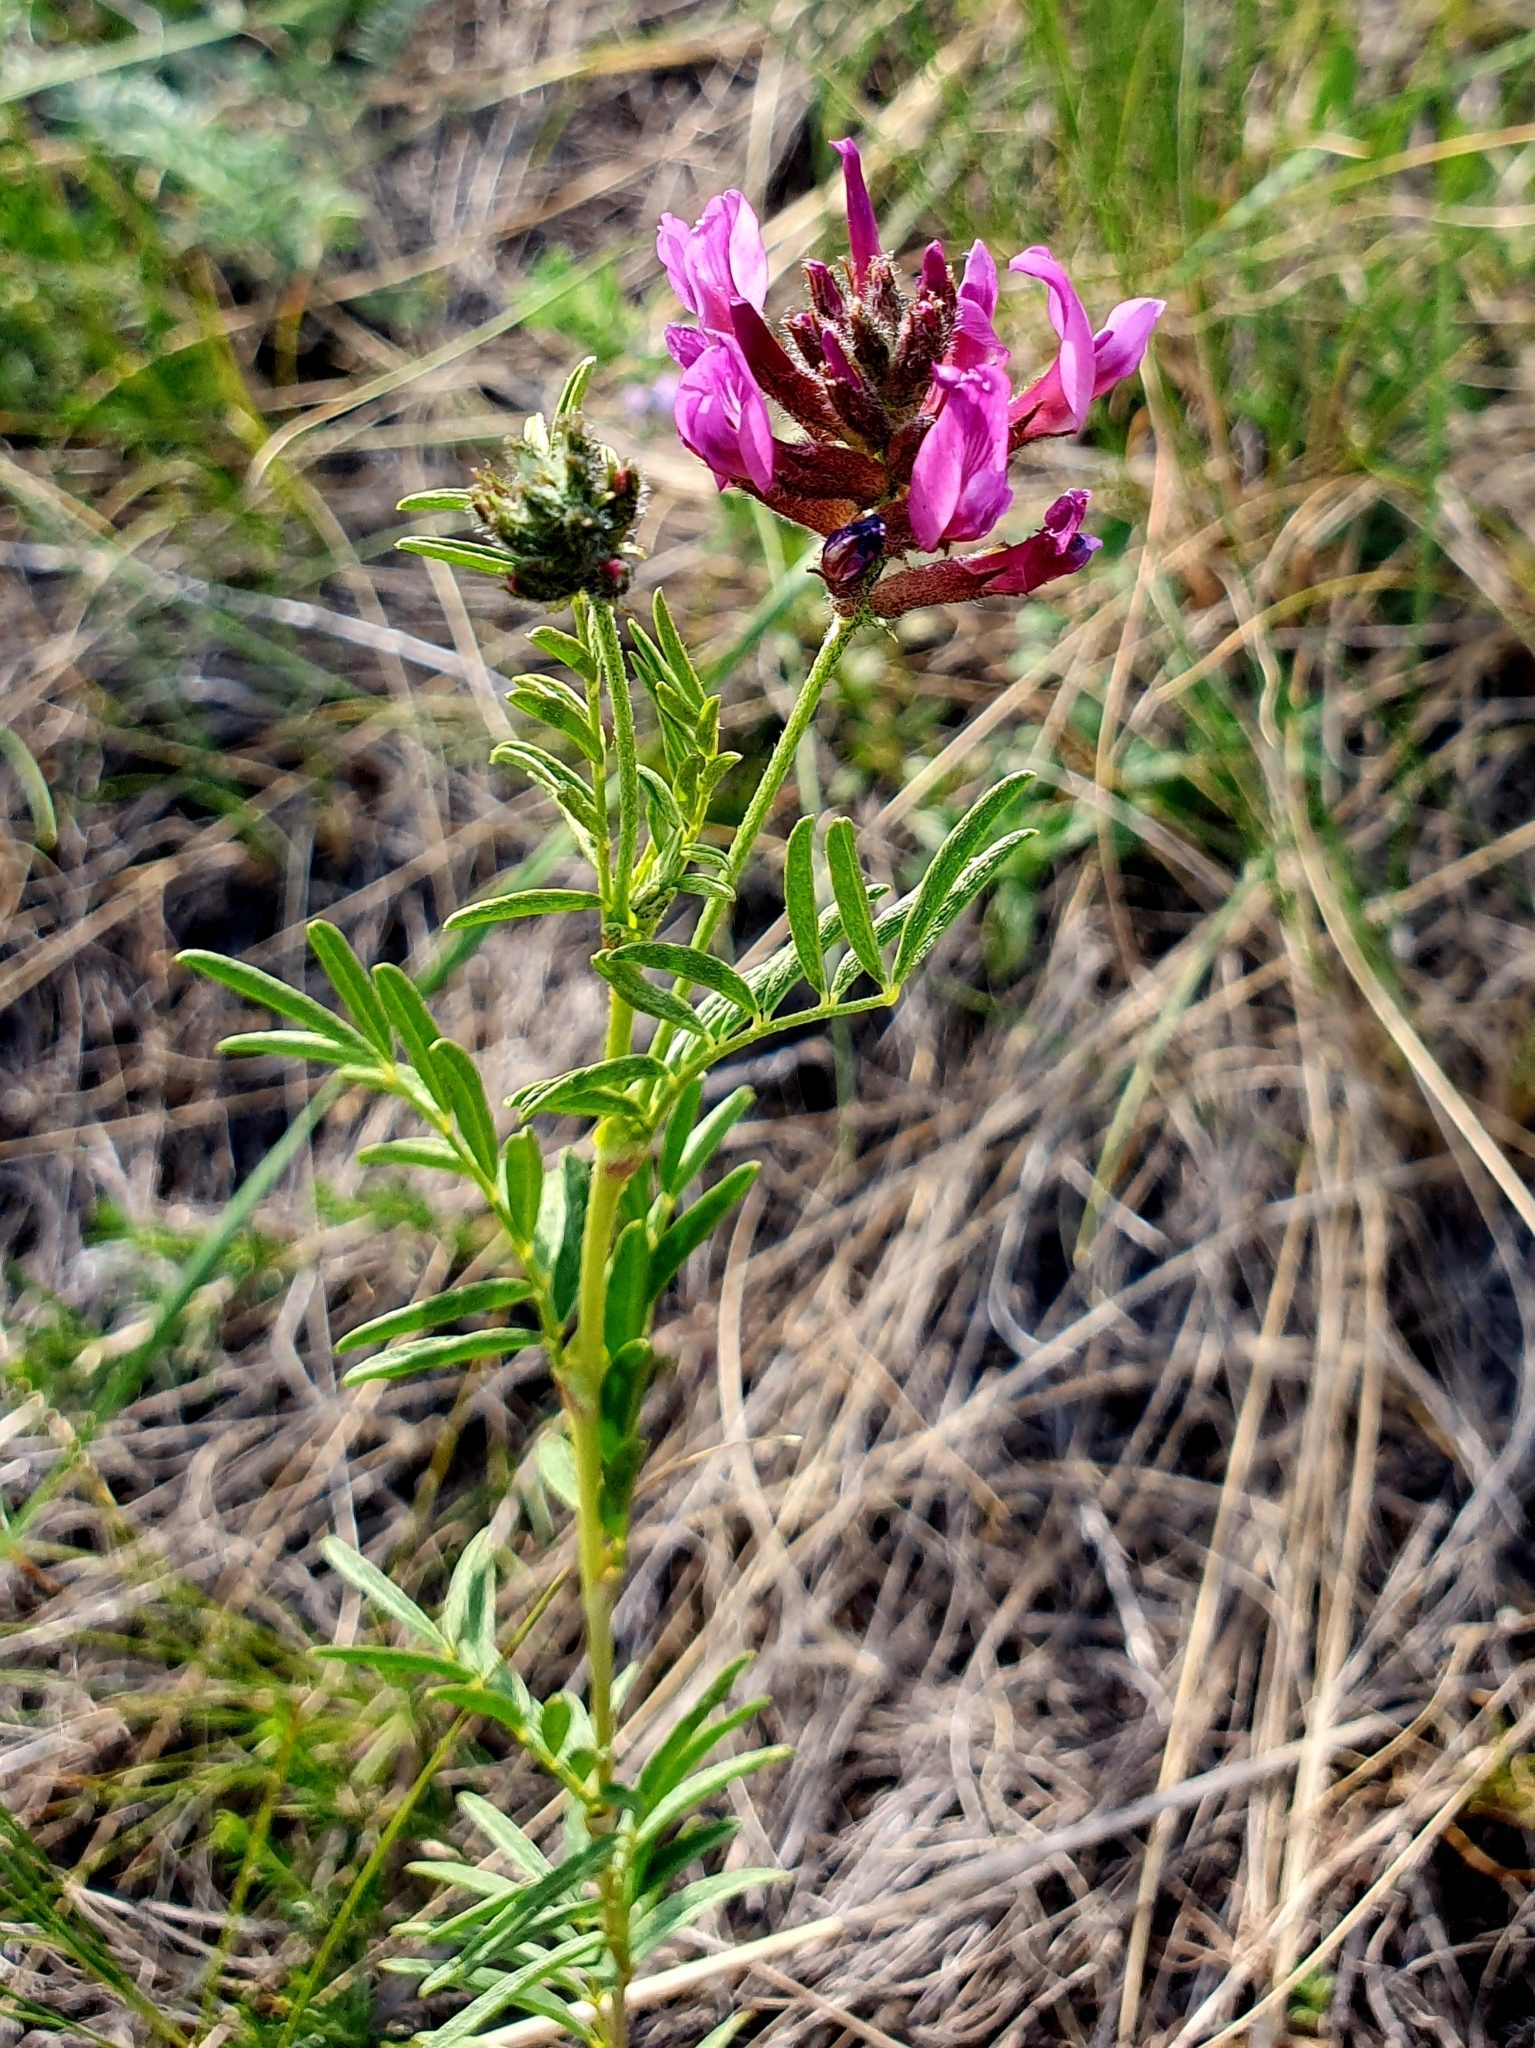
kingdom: Plantae
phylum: Tracheophyta
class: Magnoliopsida
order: Fabales
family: Fabaceae
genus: Astragalus
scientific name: Astragalus cornutus
